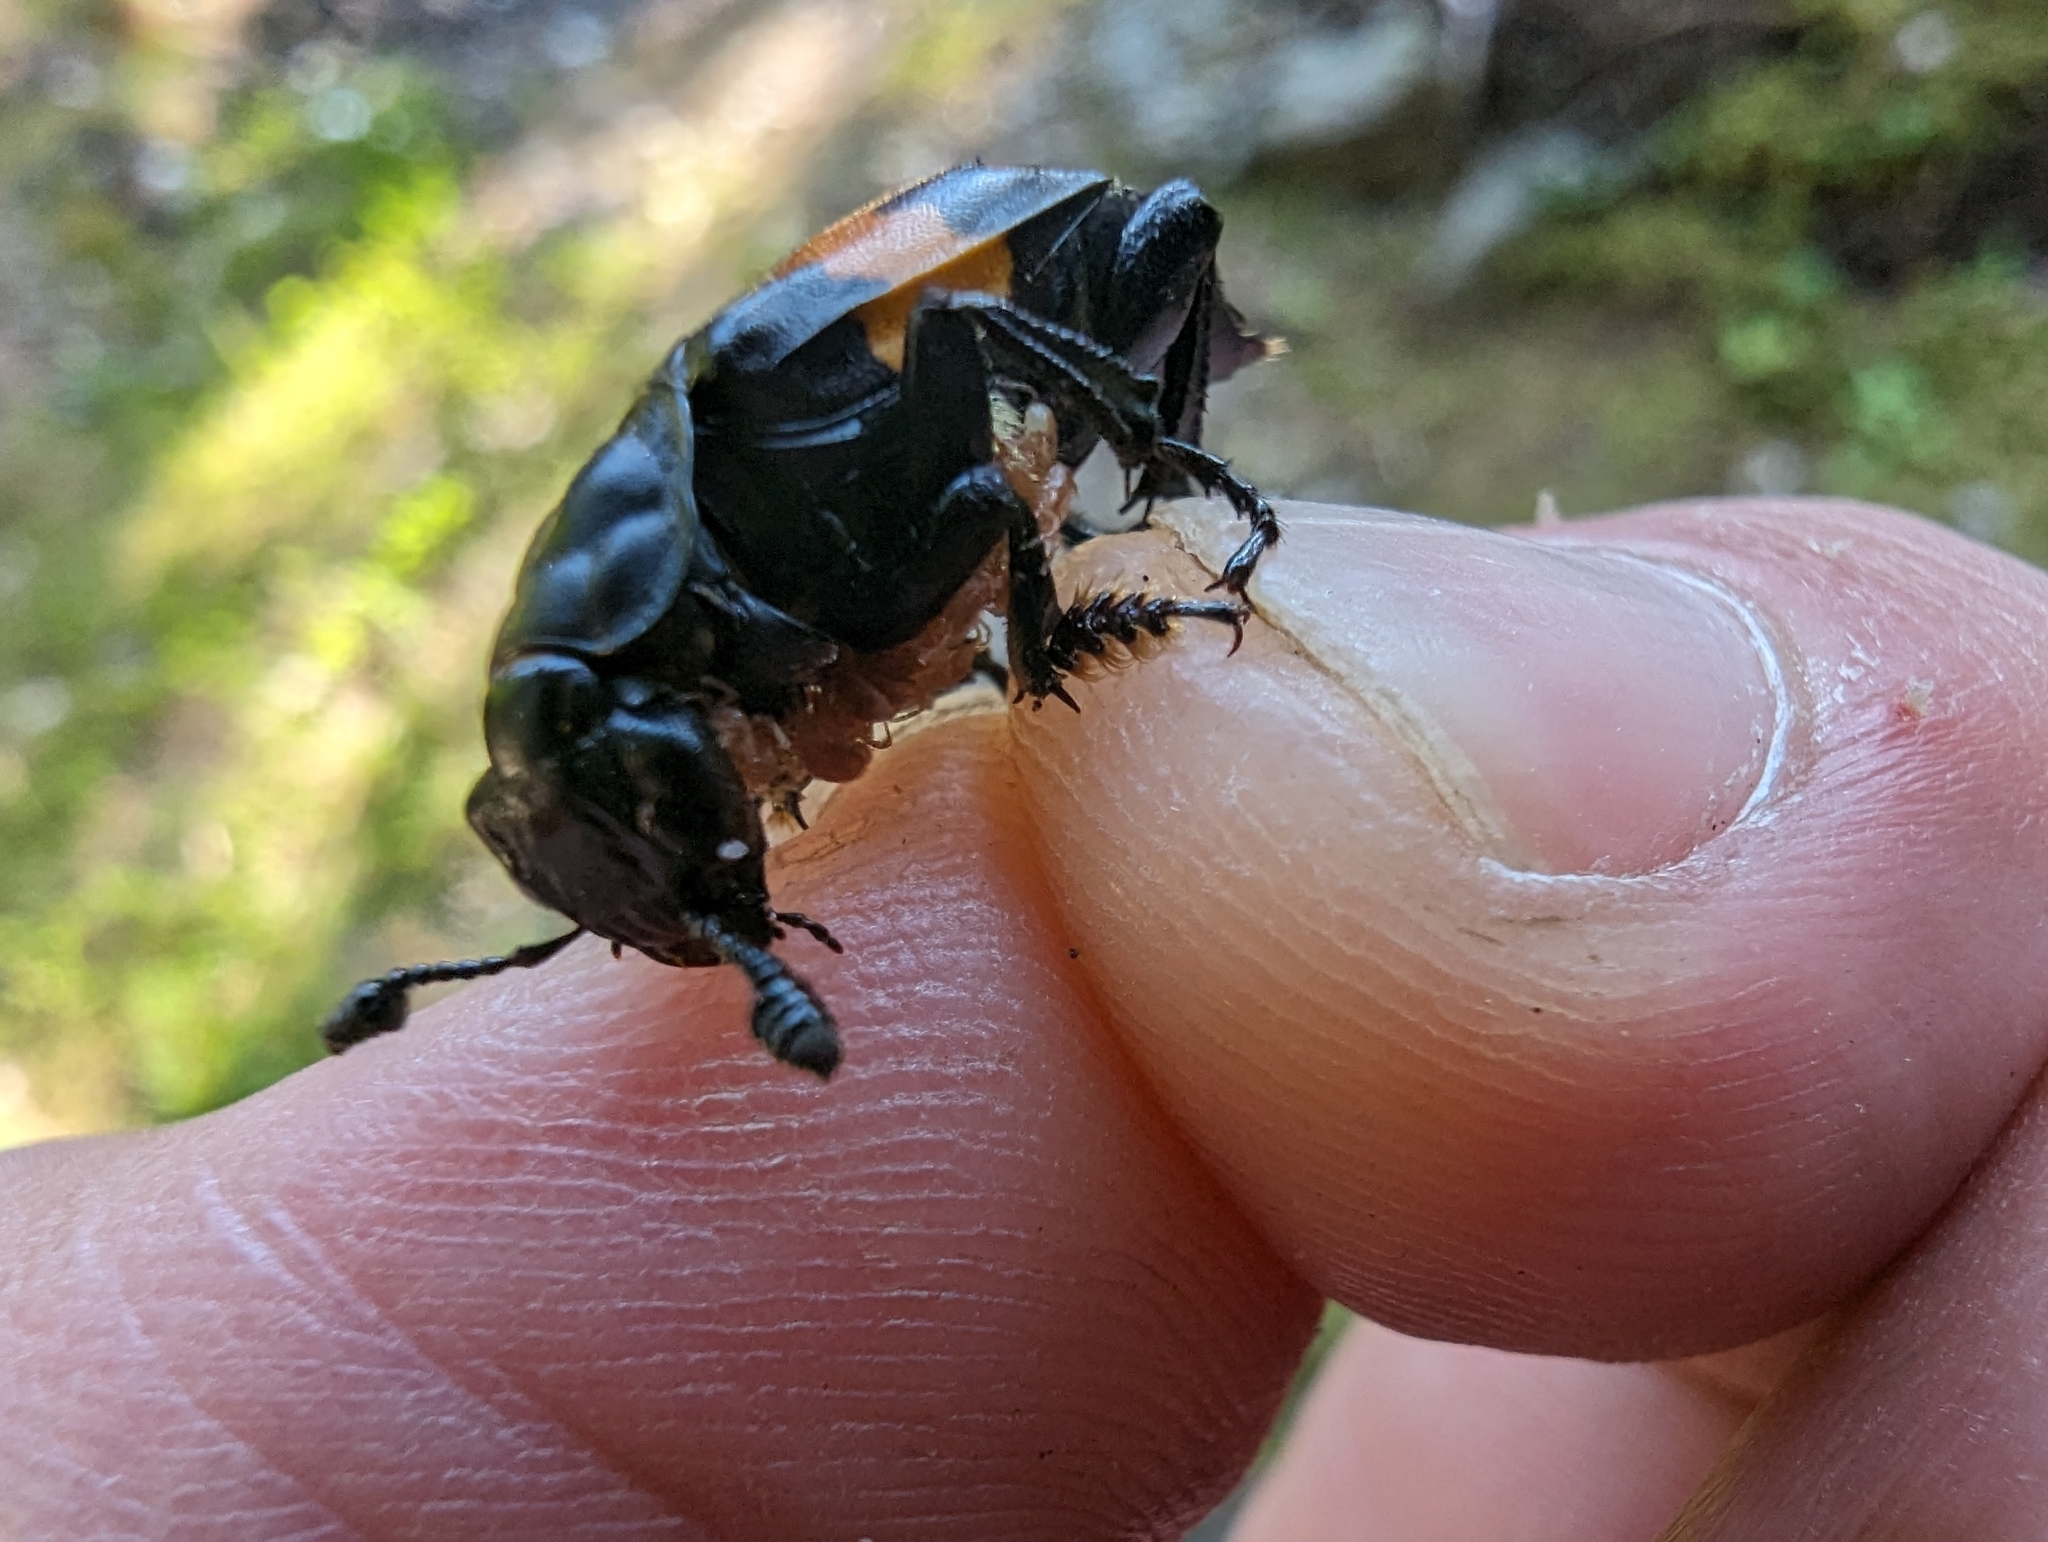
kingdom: Animalia
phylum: Arthropoda
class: Insecta
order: Coleoptera
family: Staphylinidae
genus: Nicrophorus
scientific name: Nicrophorus defodiens
